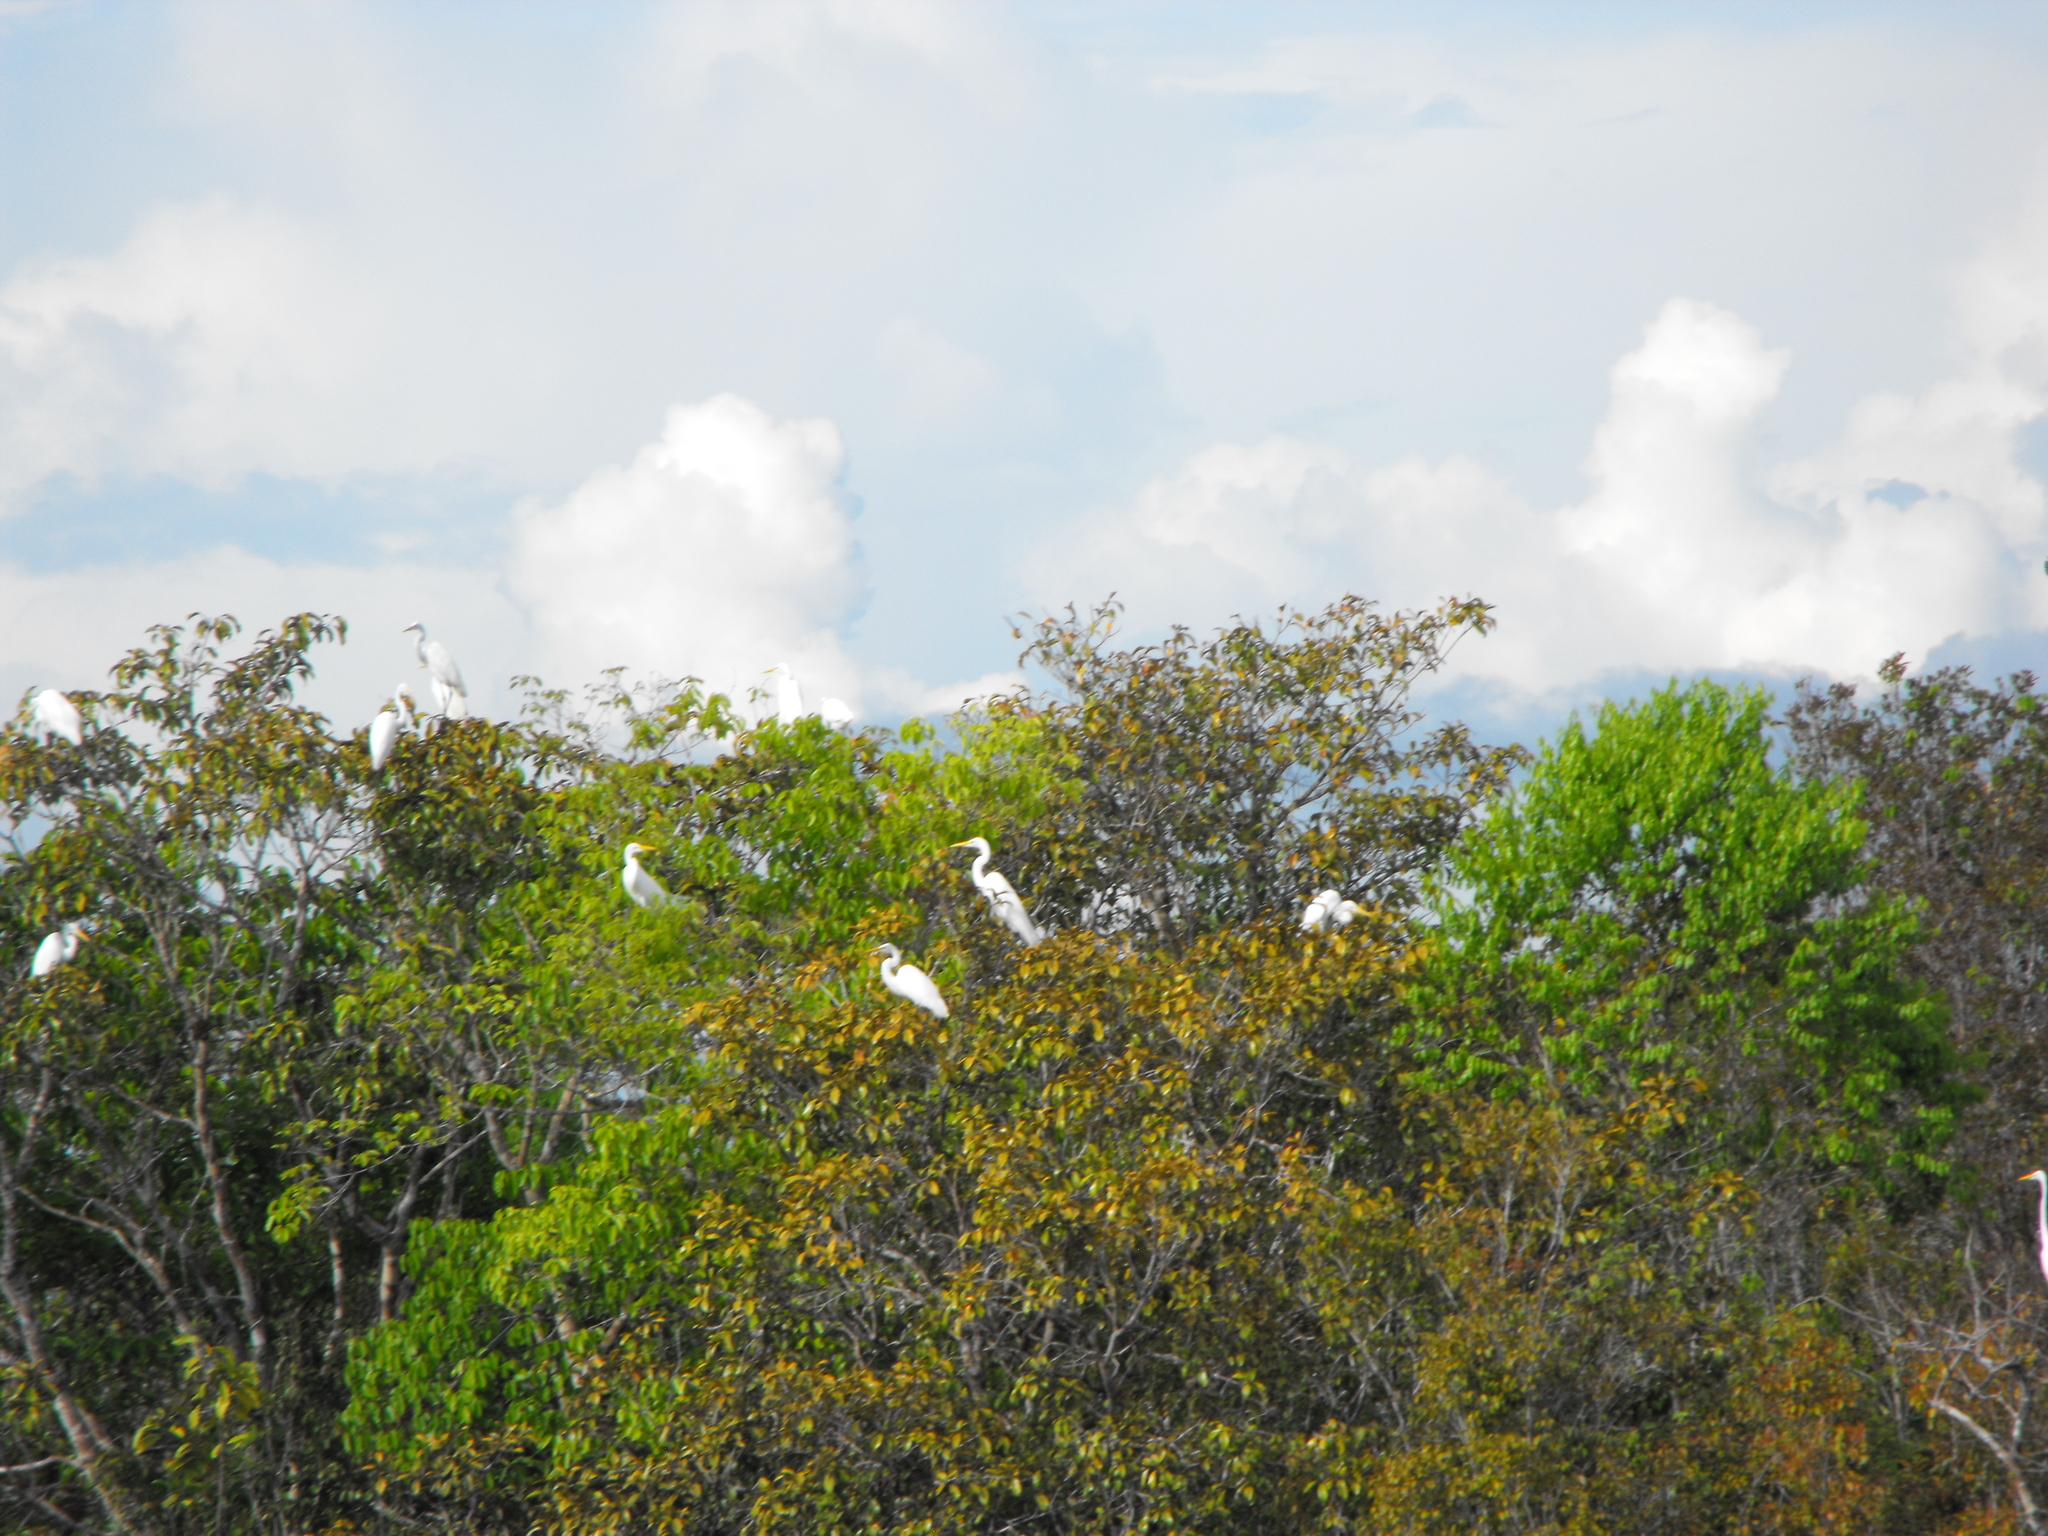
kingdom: Animalia
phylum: Chordata
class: Aves
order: Pelecaniformes
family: Ardeidae
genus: Ardea
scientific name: Ardea alba
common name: Great egret
